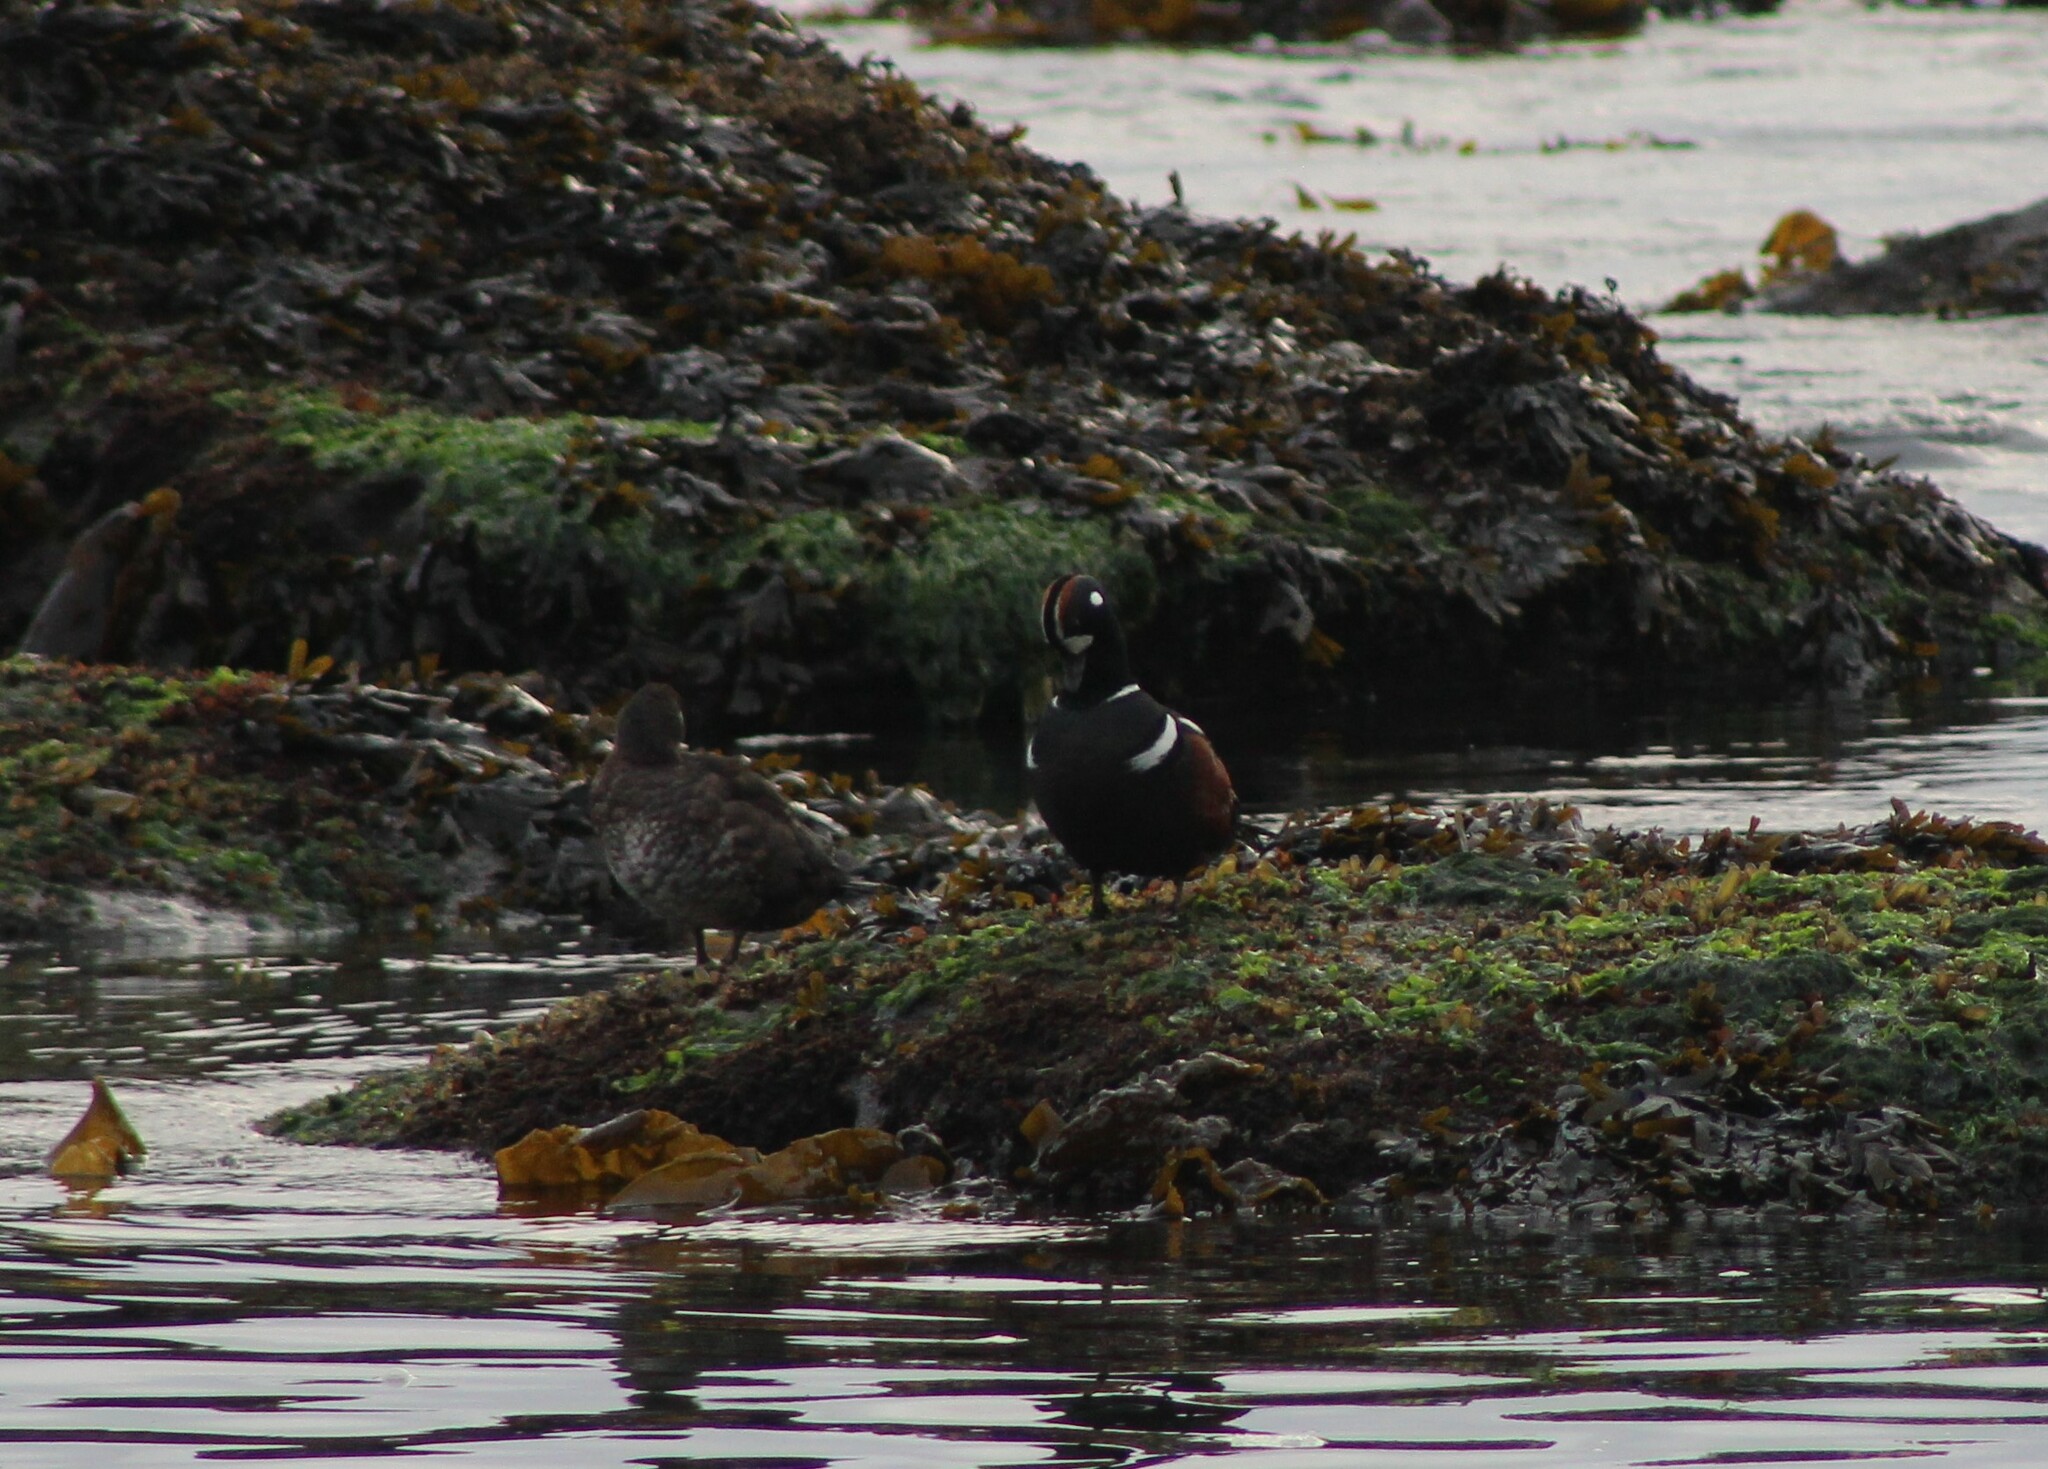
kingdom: Animalia
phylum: Chordata
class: Aves
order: Anseriformes
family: Anatidae
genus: Histrionicus
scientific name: Histrionicus histrionicus
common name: Harlequin duck
